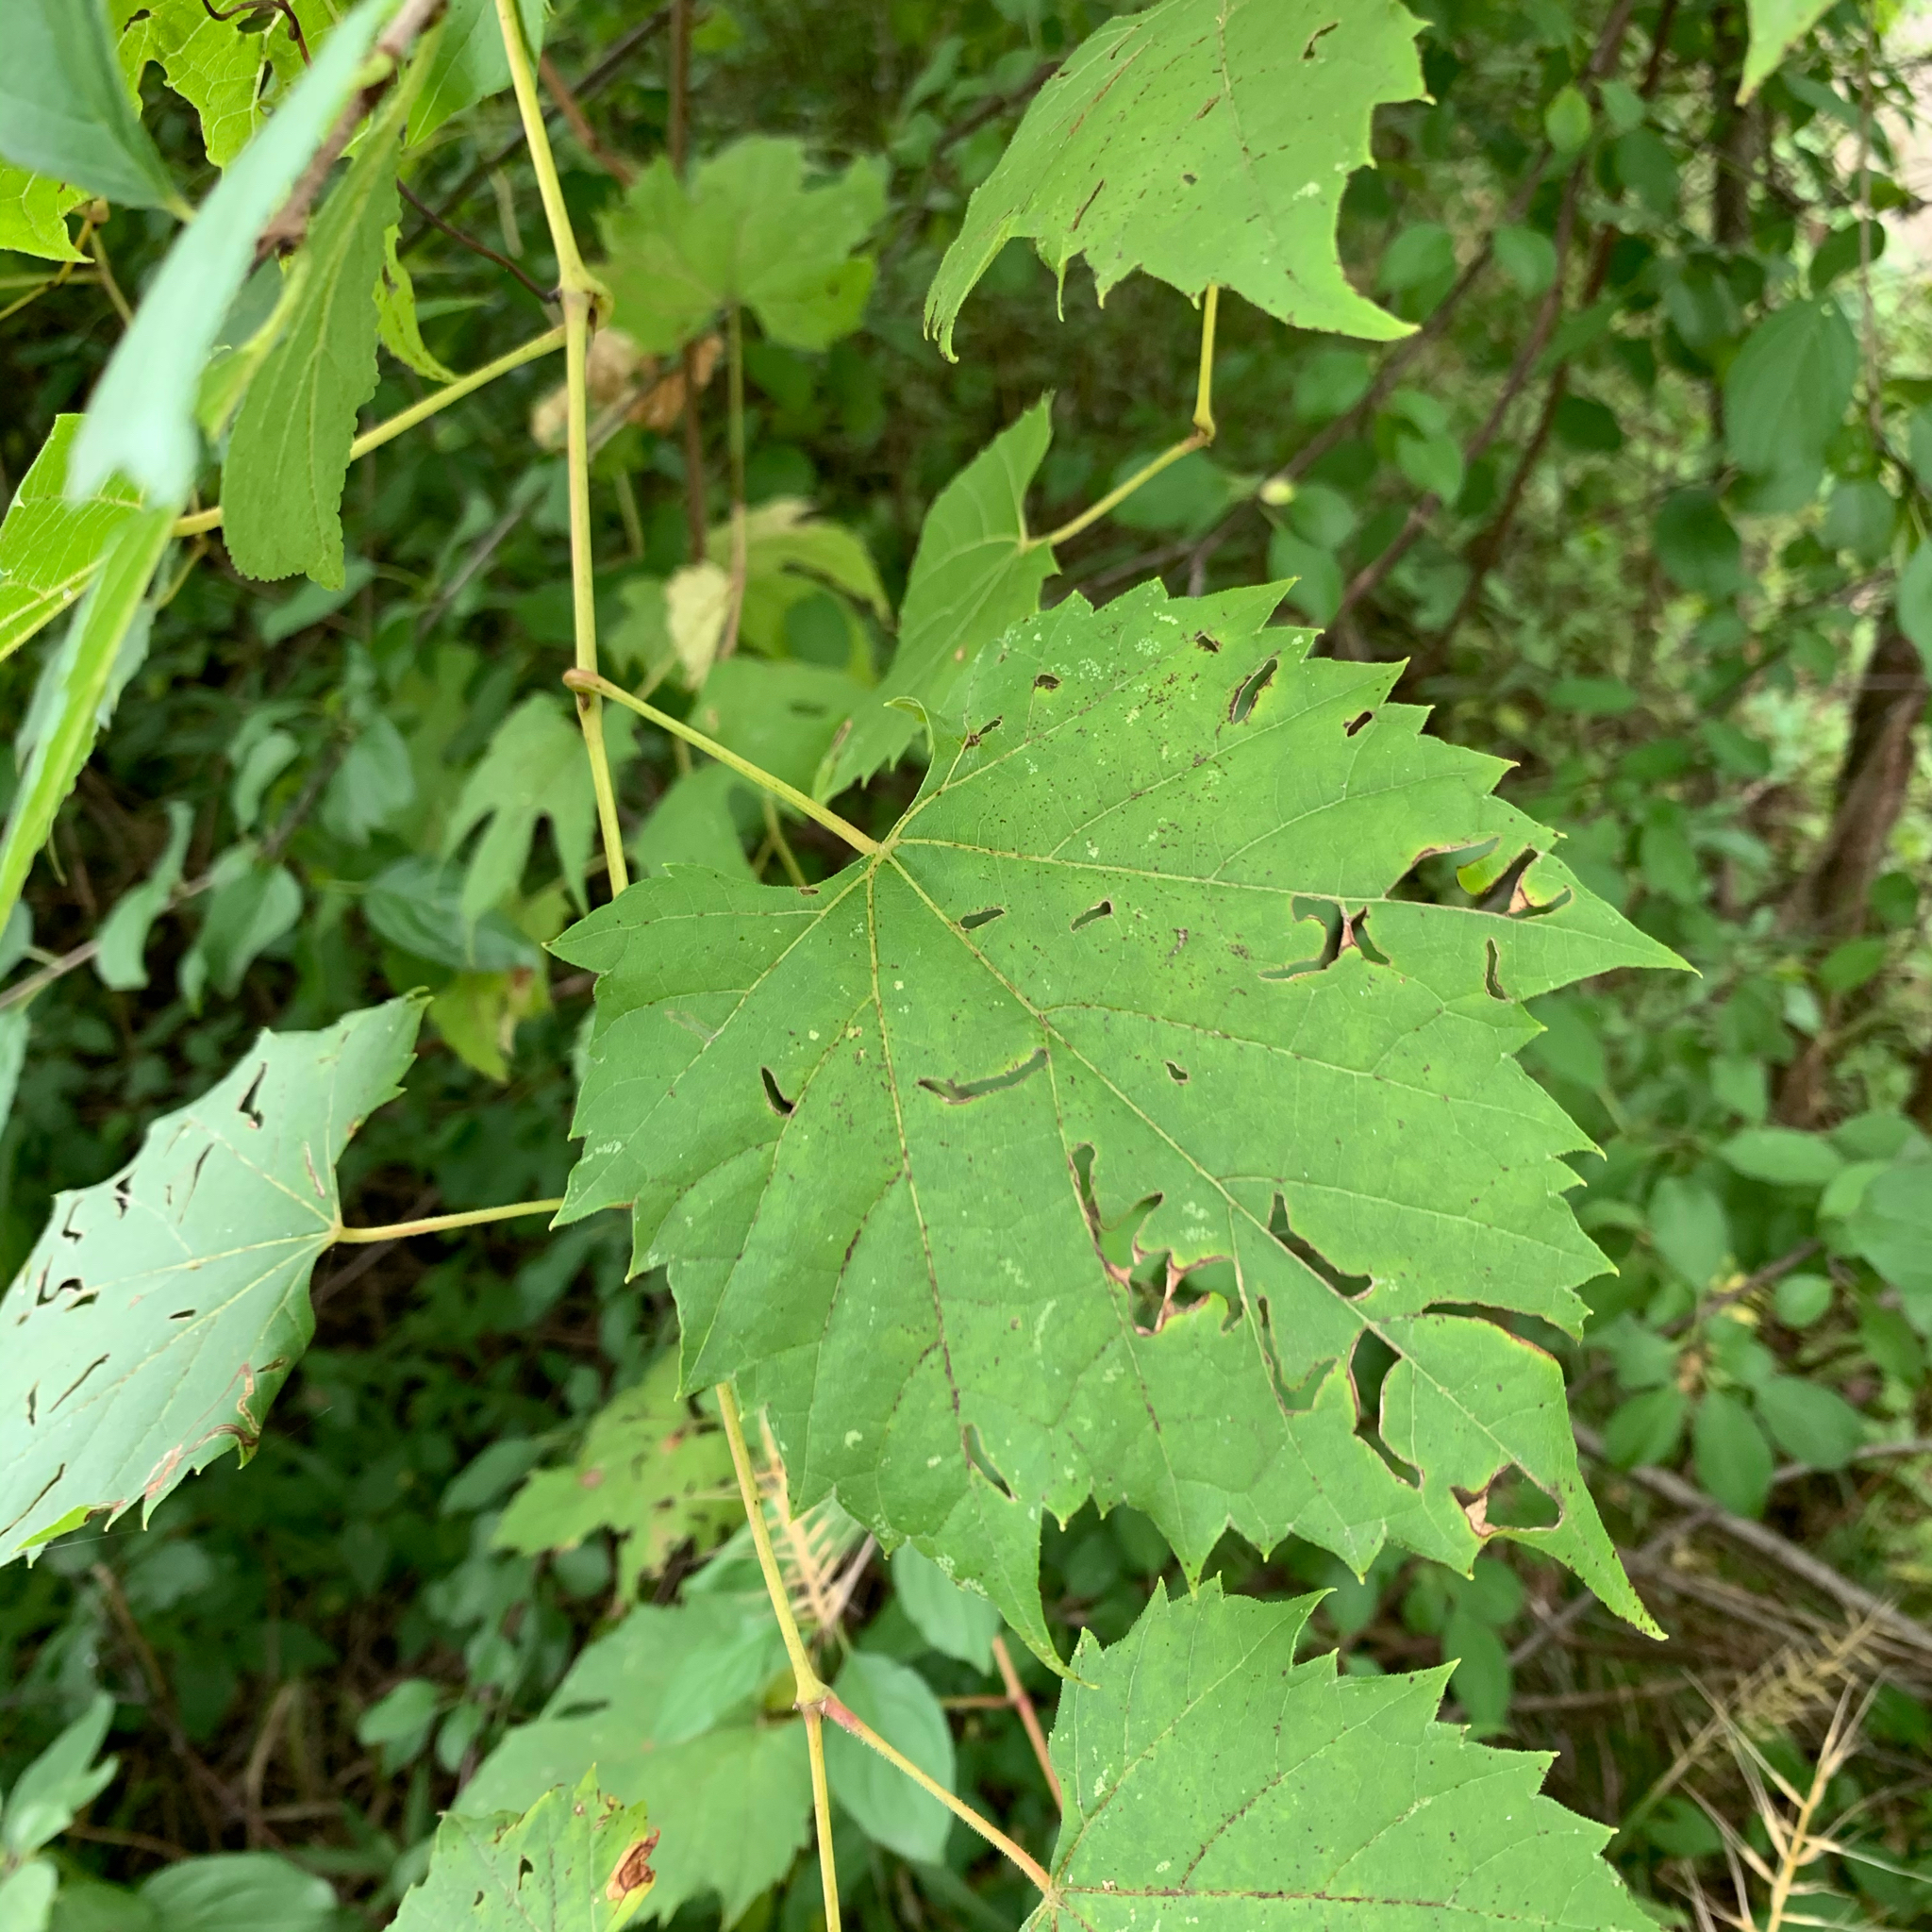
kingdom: Plantae
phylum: Tracheophyta
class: Magnoliopsida
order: Vitales
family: Vitaceae
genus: Vitis
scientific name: Vitis riparia
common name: Frost grape
